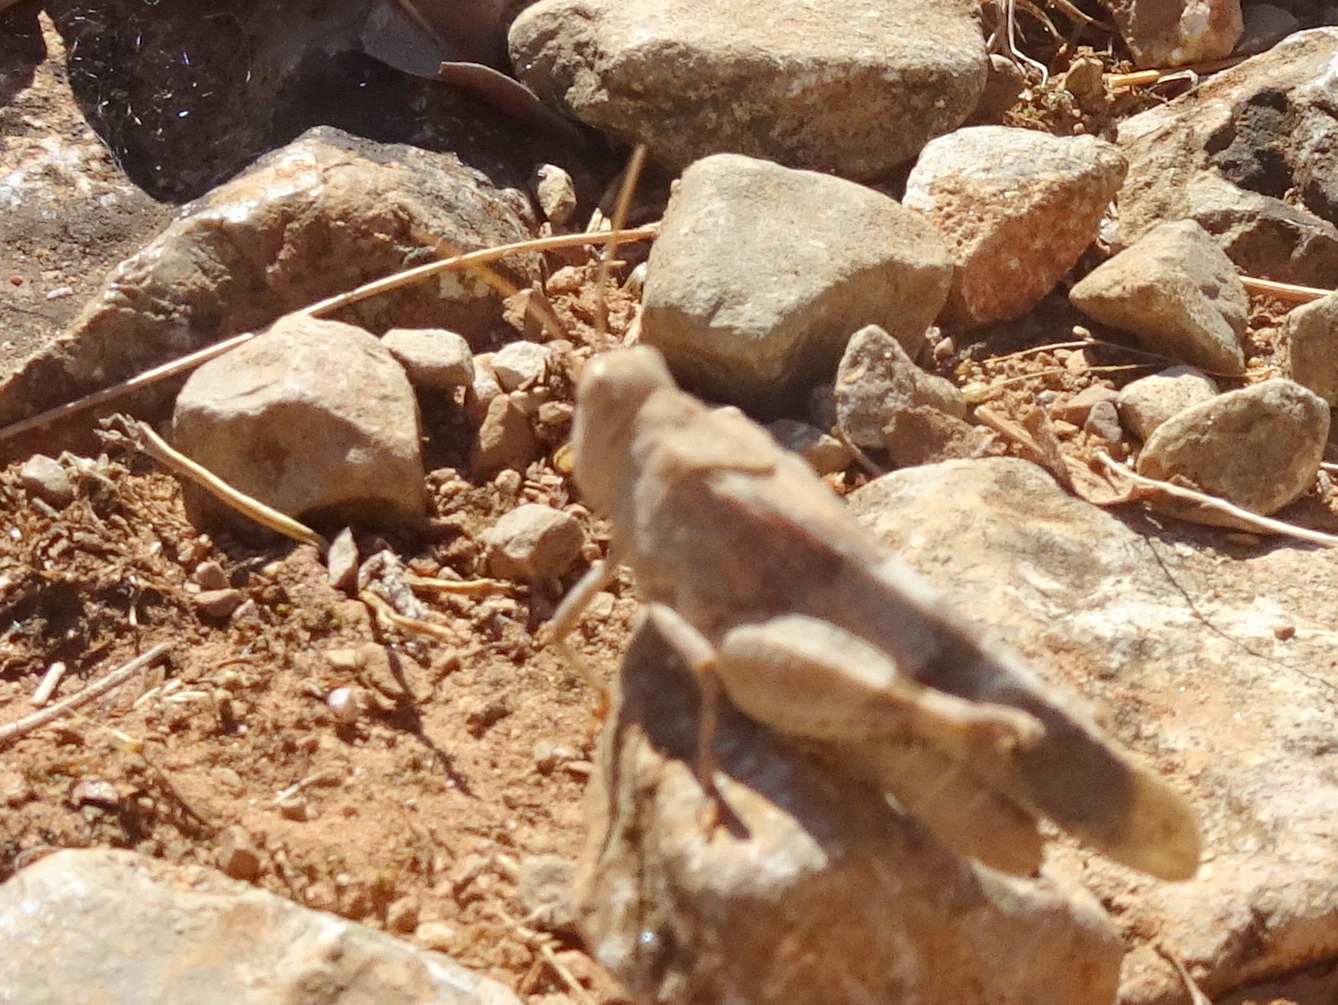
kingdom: Animalia
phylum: Arthropoda
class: Insecta
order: Orthoptera
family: Acrididae
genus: Oedipoda
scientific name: Oedipoda
